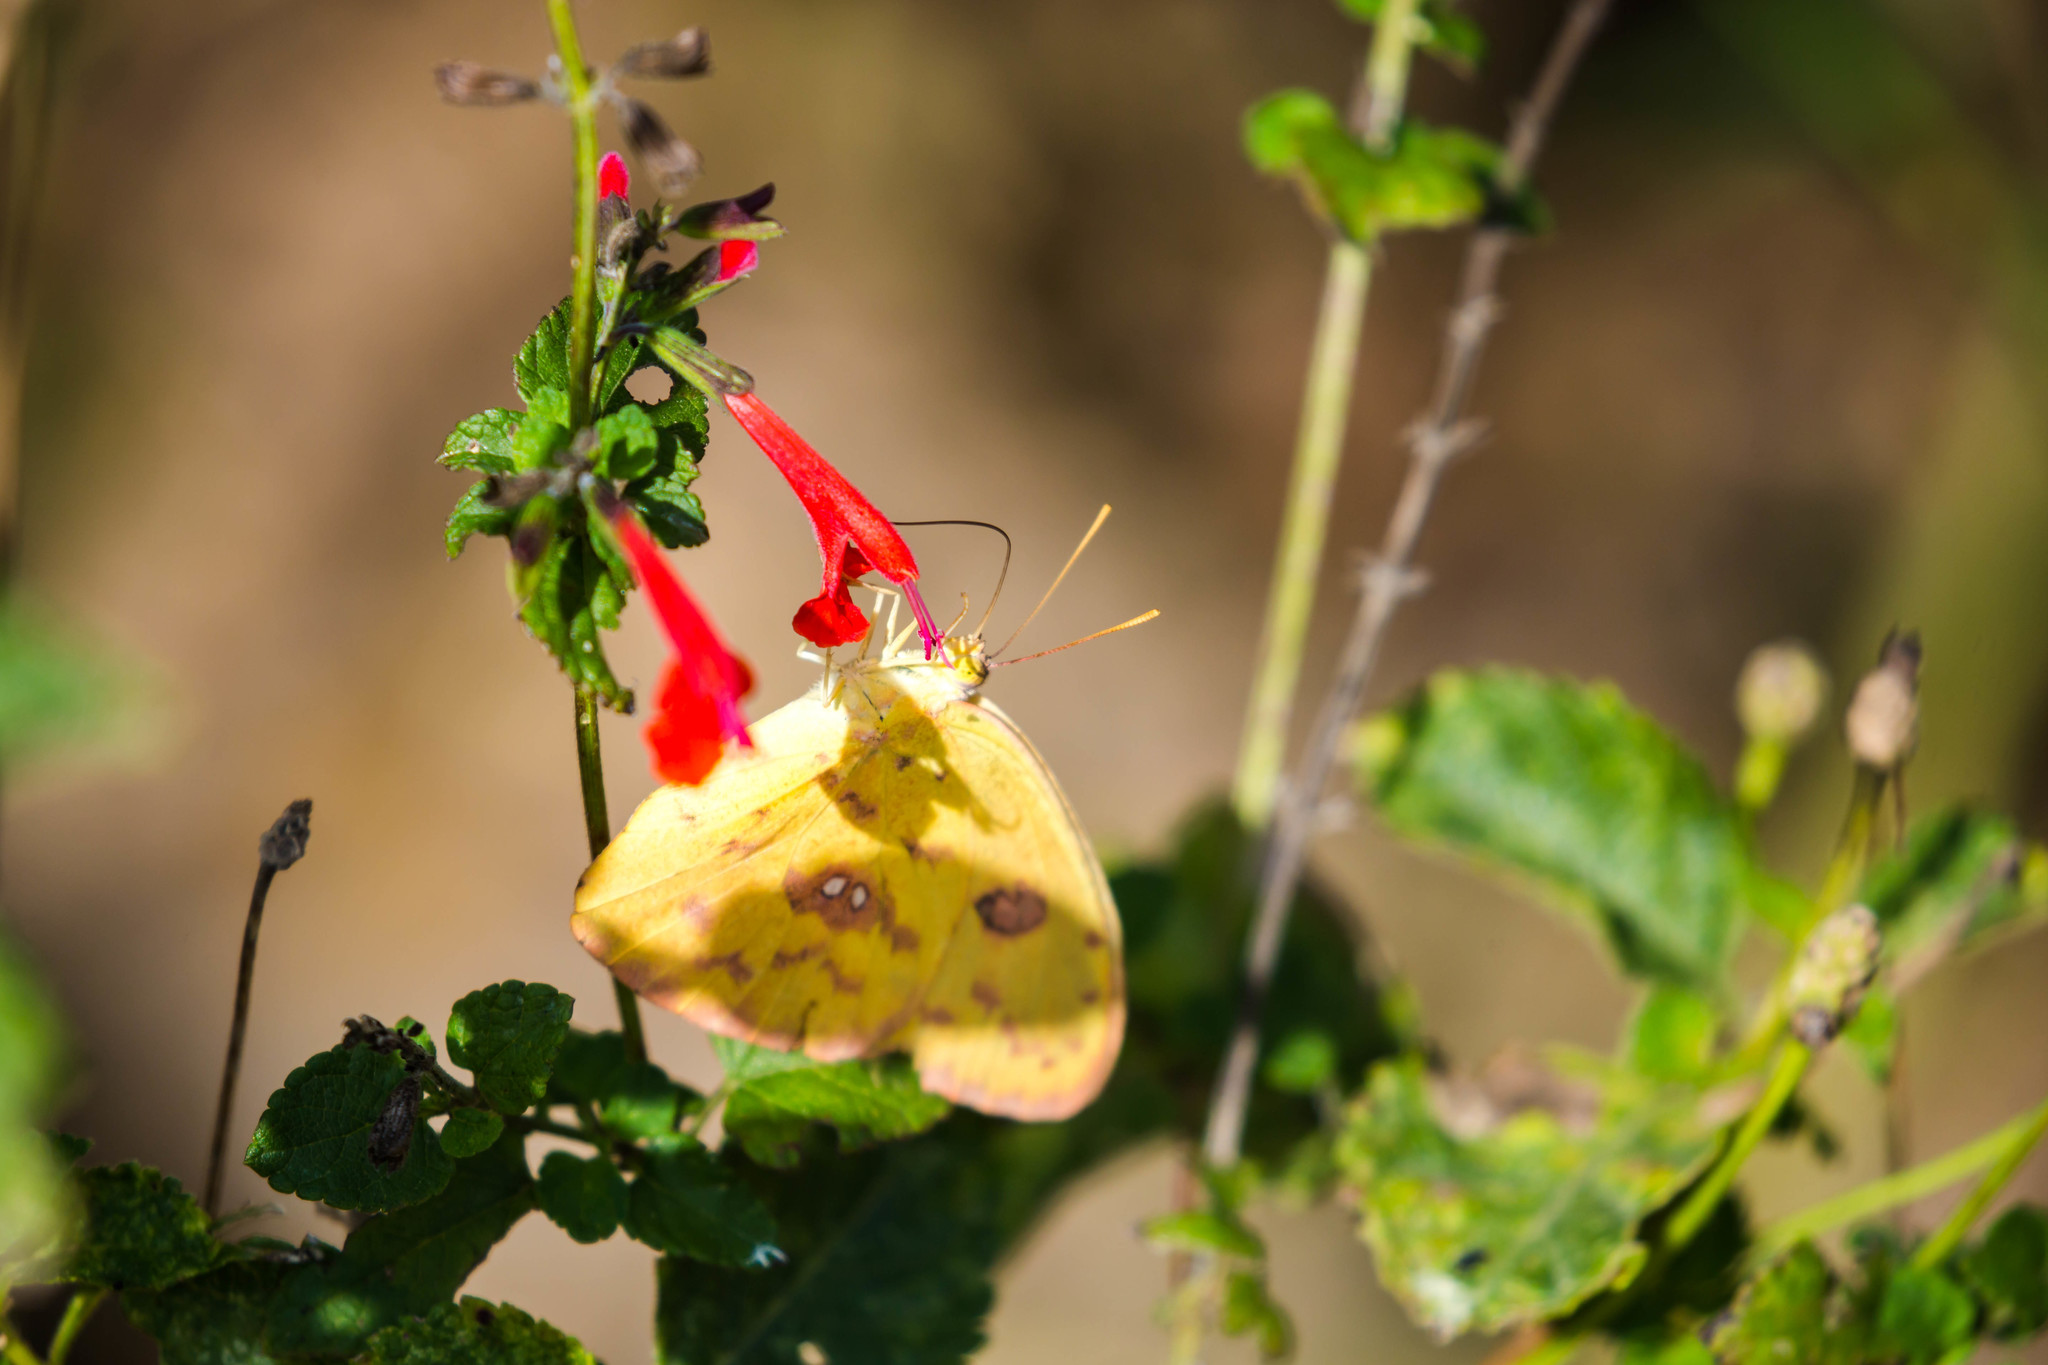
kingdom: Animalia
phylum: Arthropoda
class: Insecta
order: Lepidoptera
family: Pieridae
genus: Phoebis
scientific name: Phoebis sennae
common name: Cloudless sulphur
